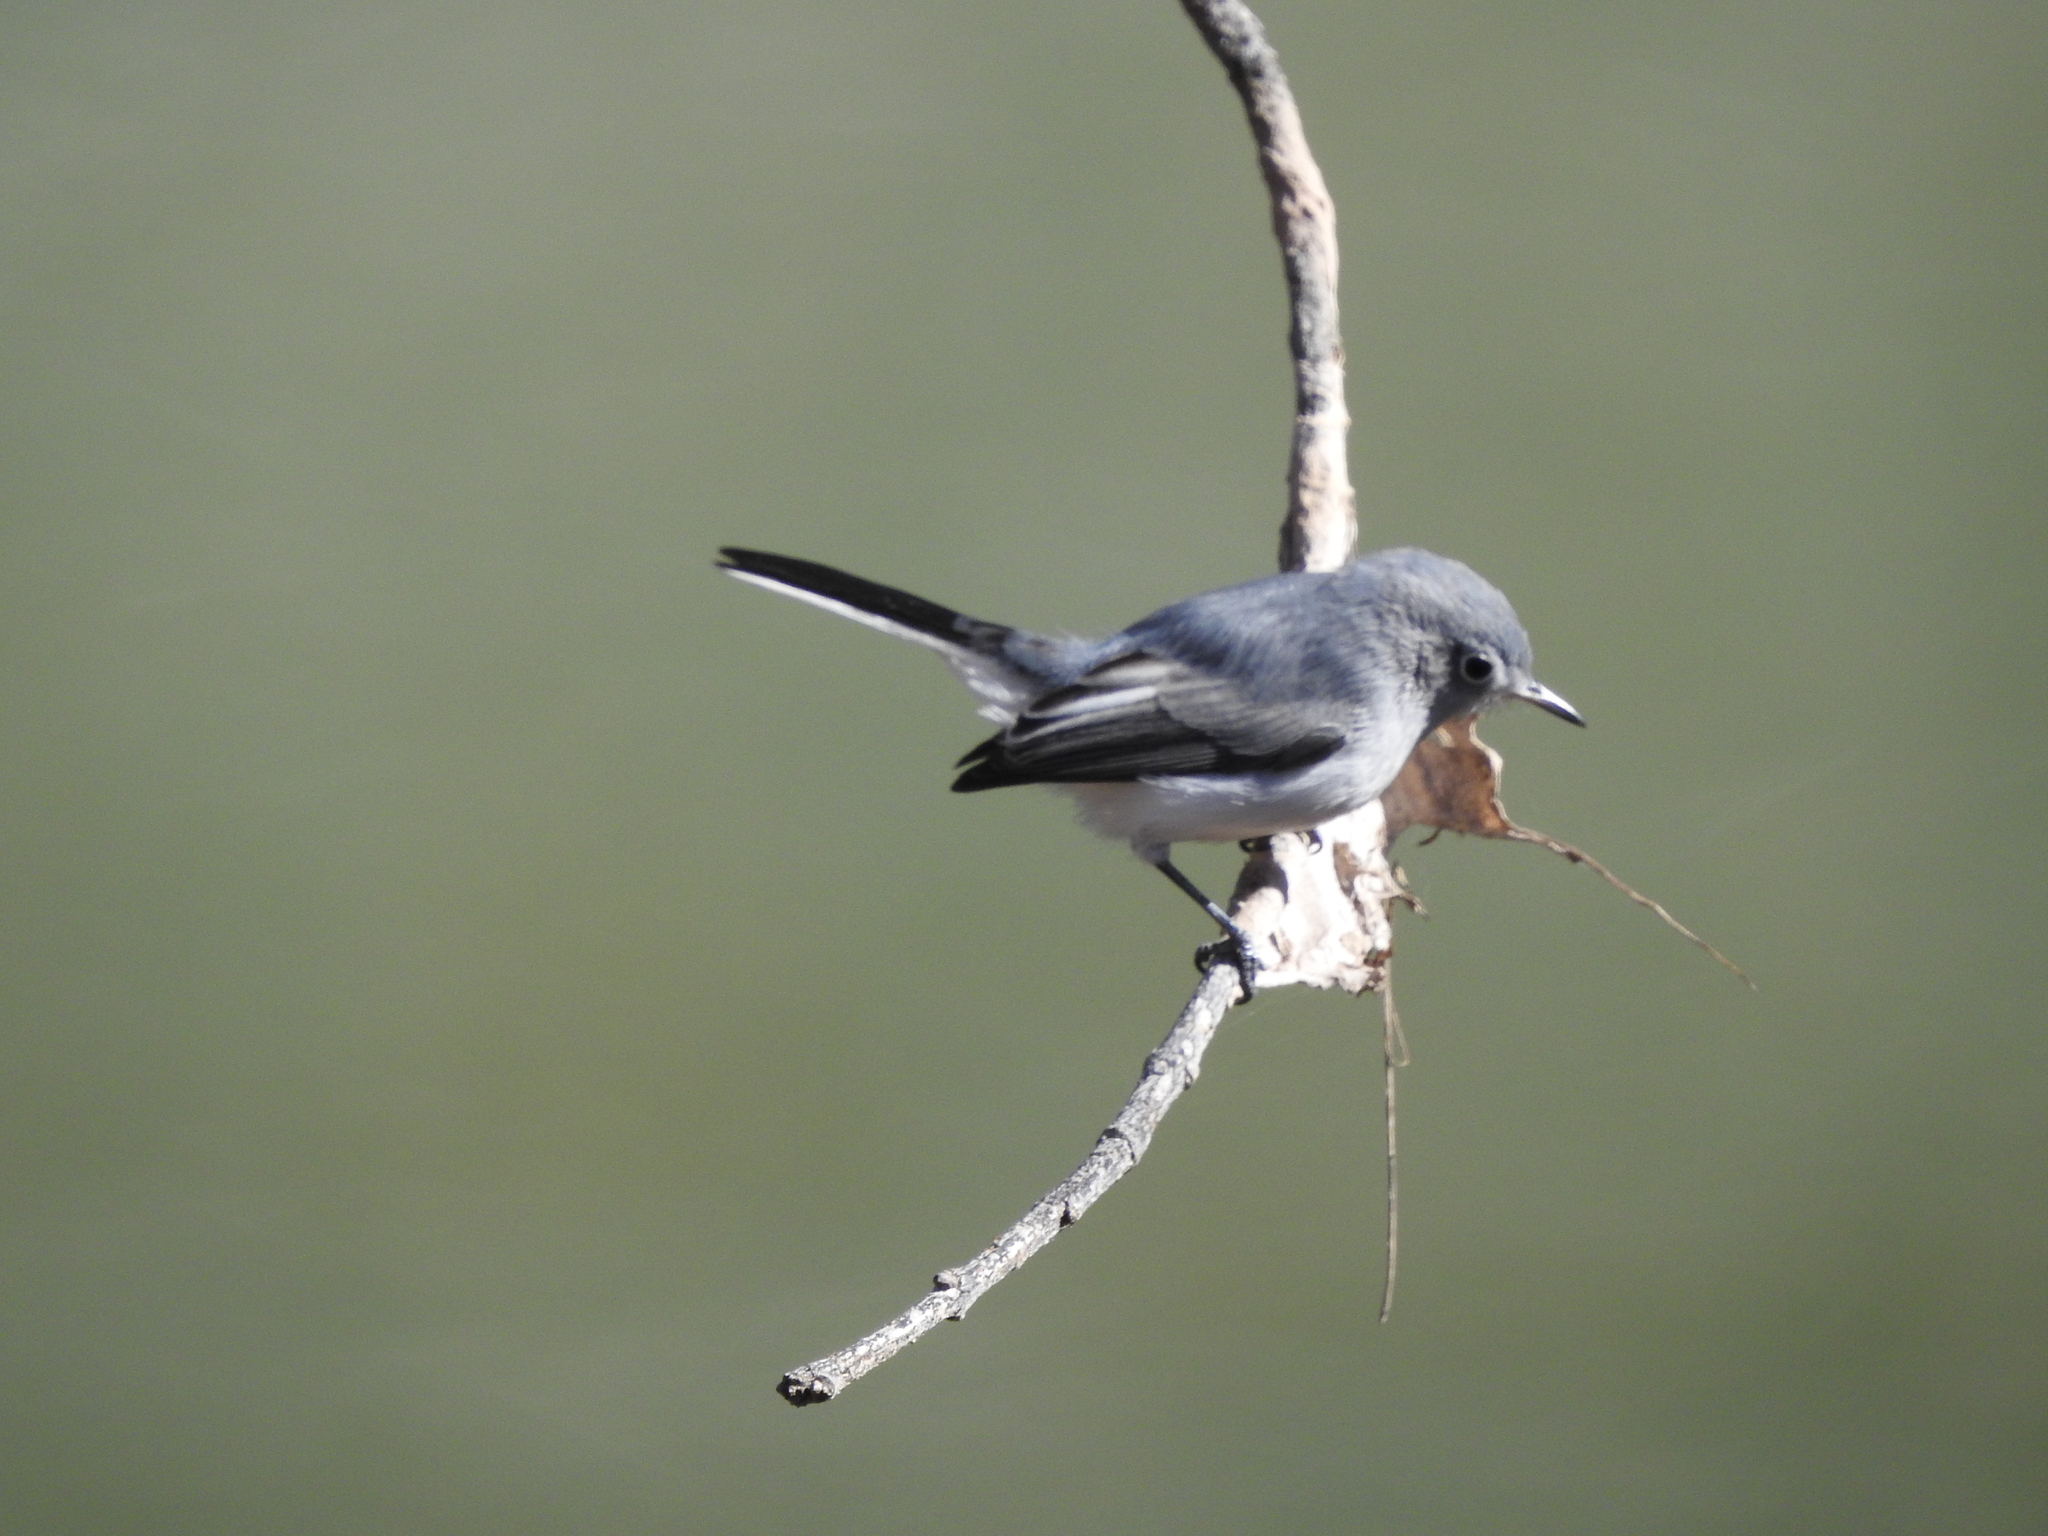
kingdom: Animalia
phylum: Chordata
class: Aves
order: Passeriformes
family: Polioptilidae
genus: Polioptila
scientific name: Polioptila caerulea
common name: Blue-gray gnatcatcher
